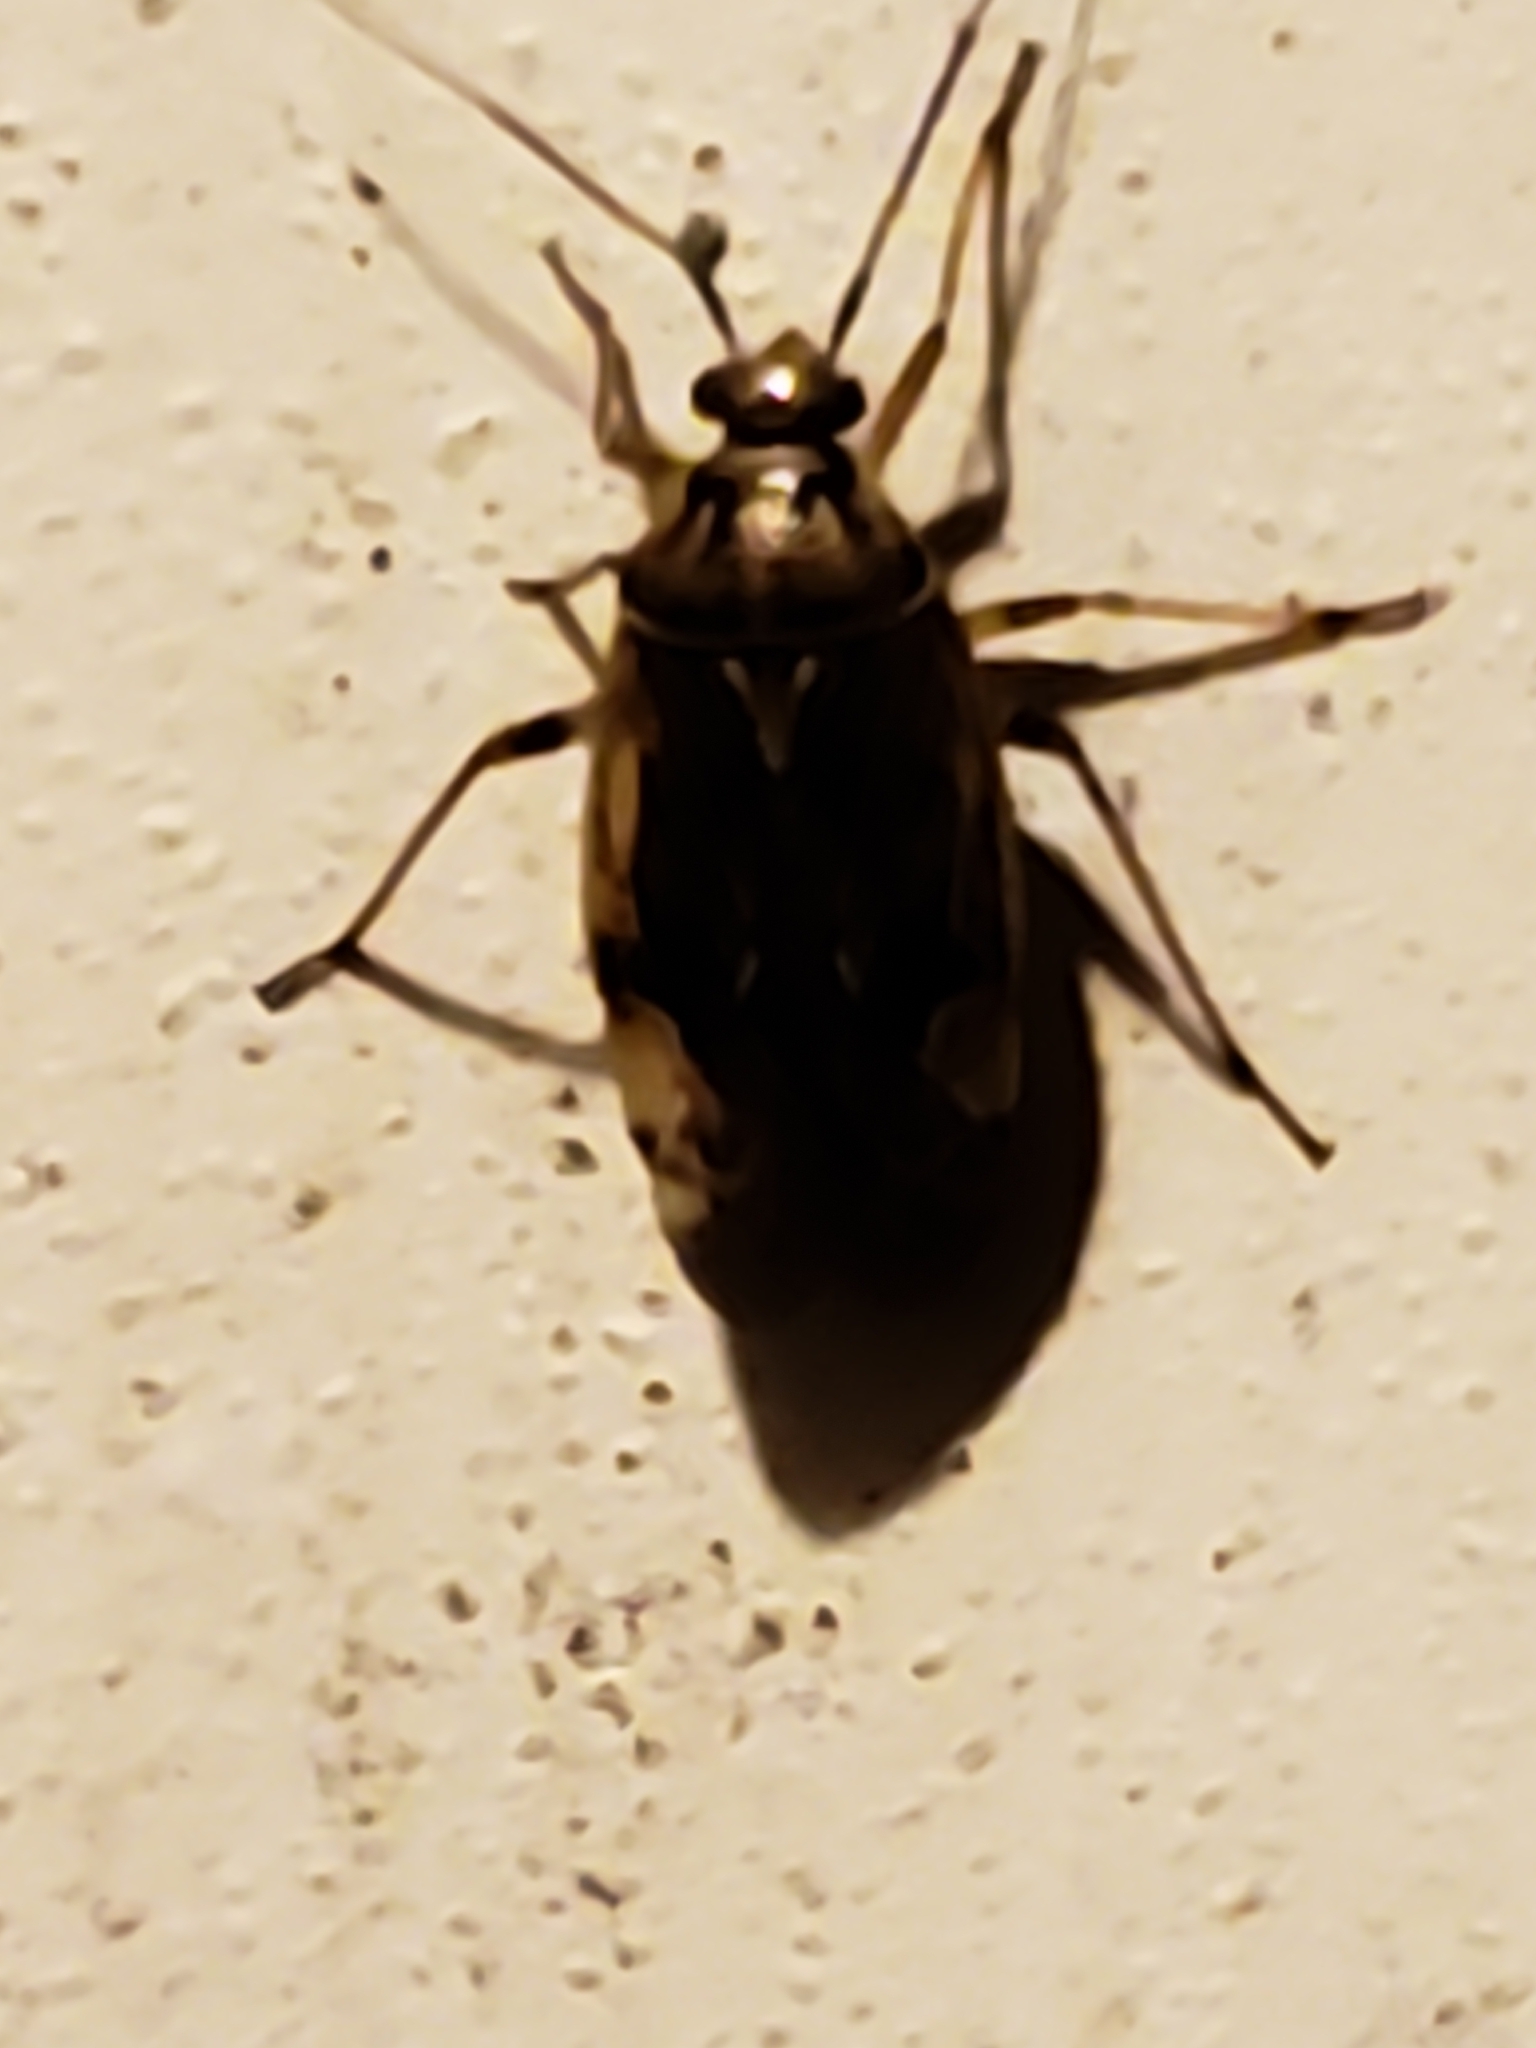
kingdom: Animalia
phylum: Arthropoda
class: Insecta
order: Hemiptera
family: Miridae
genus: Lygus
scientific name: Lygus lineolaris
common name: North american tarnished plant bug
